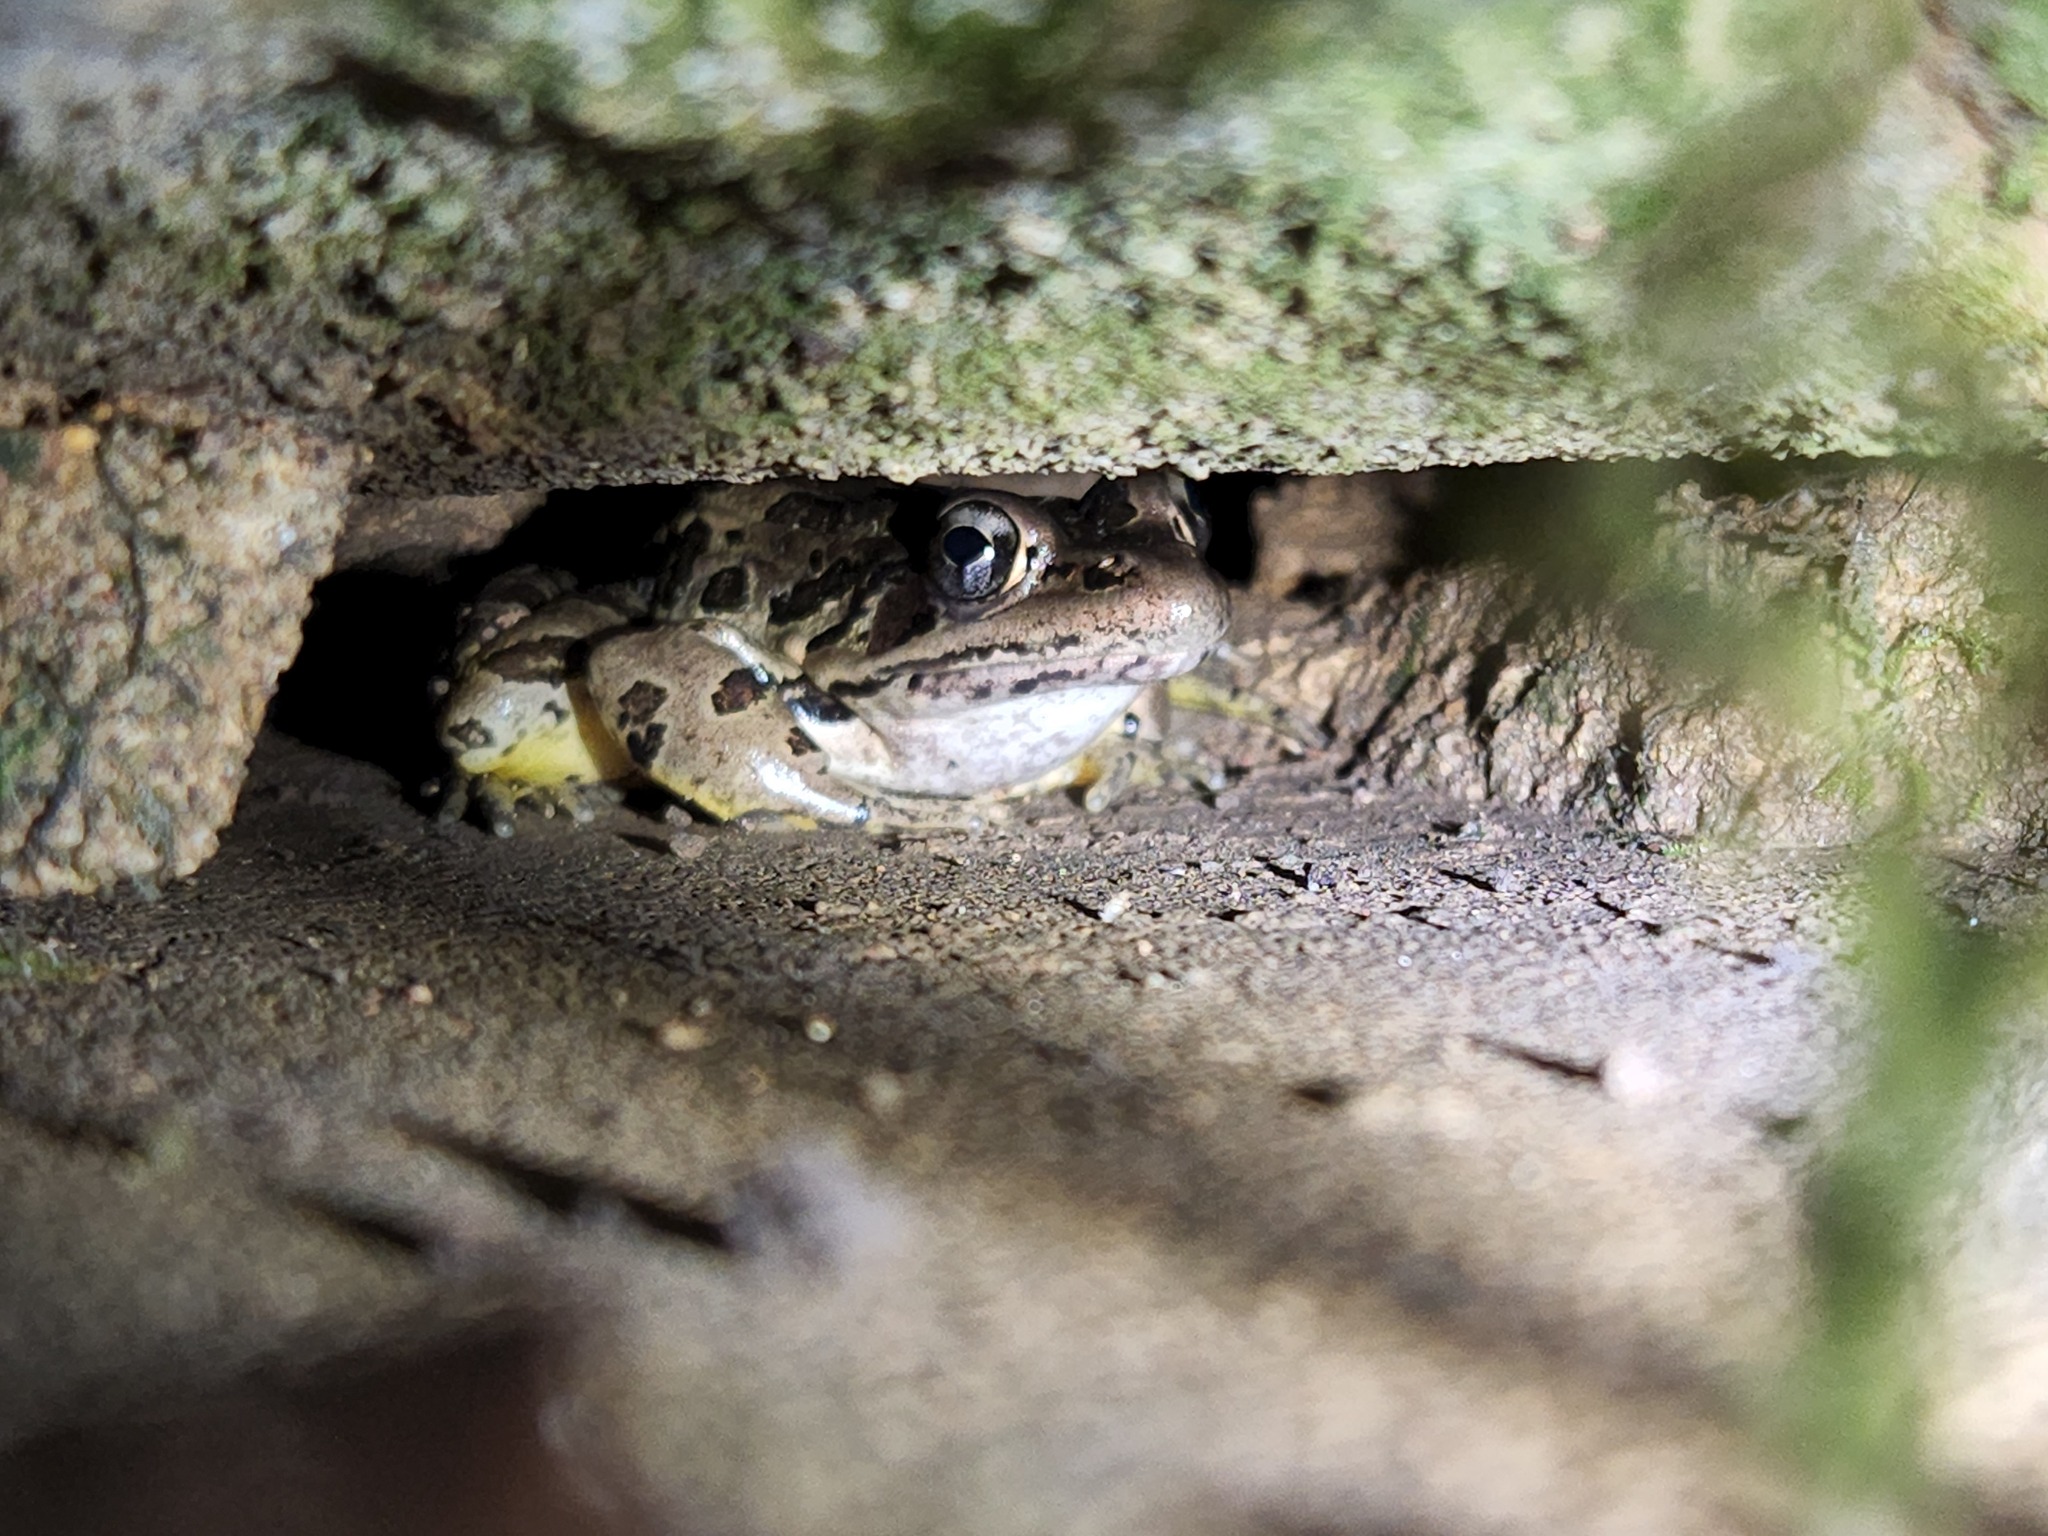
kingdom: Animalia
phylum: Chordata
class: Amphibia
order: Anura
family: Ranidae
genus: Lithobates
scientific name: Lithobates palustris
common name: Pickerel frog
